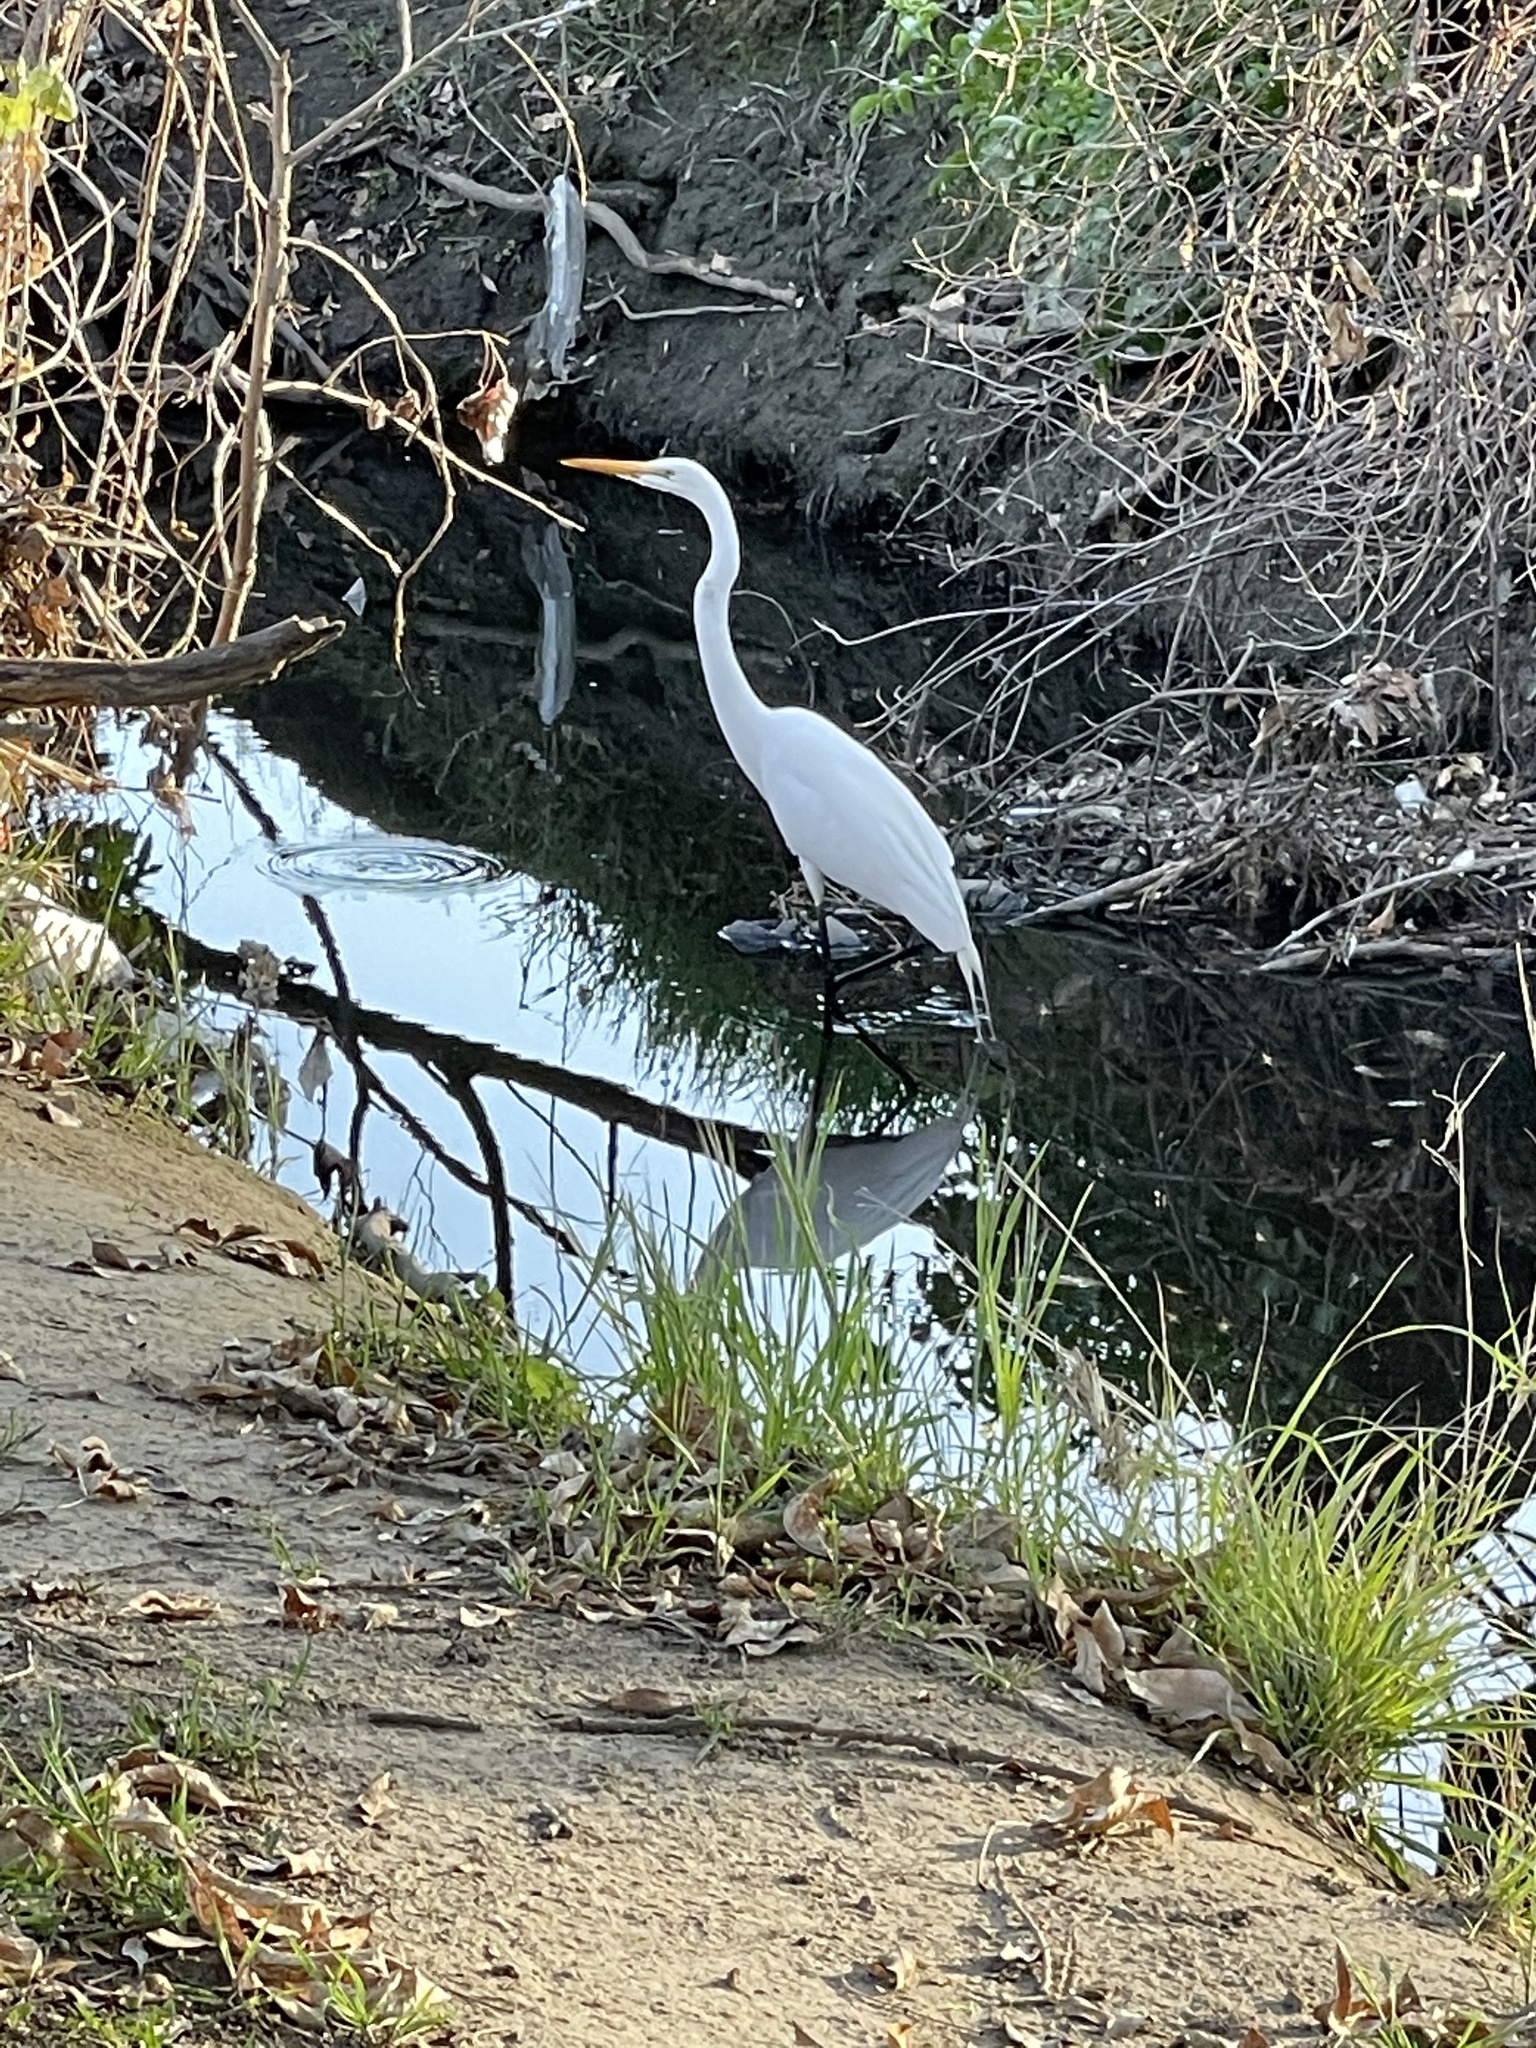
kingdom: Animalia
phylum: Chordata
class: Aves
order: Pelecaniformes
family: Ardeidae
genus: Ardea
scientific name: Ardea alba
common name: Great egret
